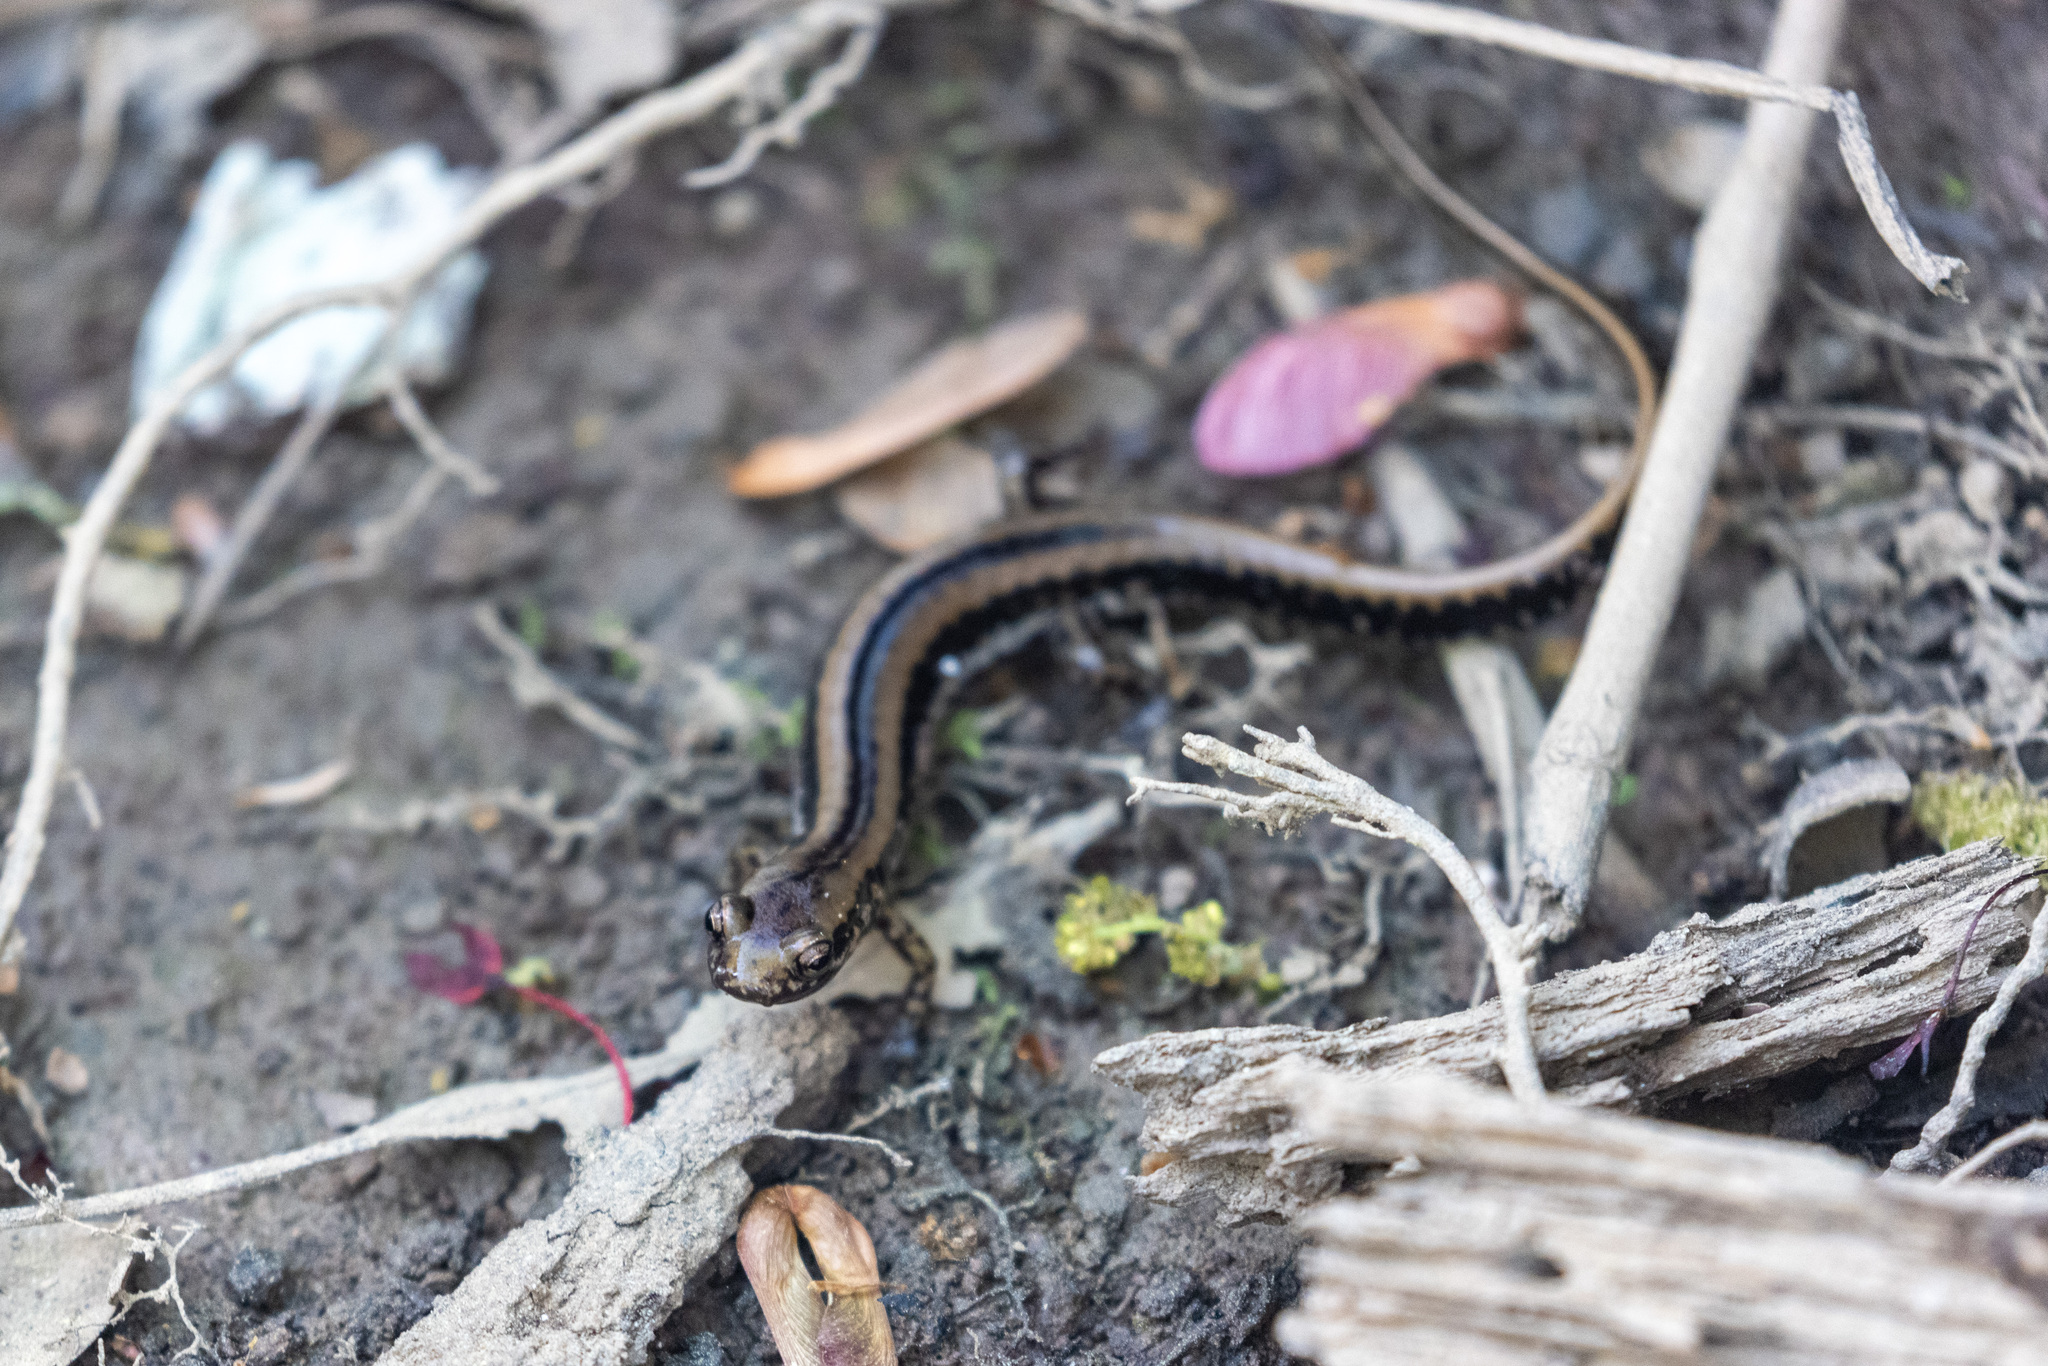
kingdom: Animalia
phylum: Chordata
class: Amphibia
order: Caudata
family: Plethodontidae
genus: Eurycea
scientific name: Eurycea guttolineata
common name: Three-lined salamander
